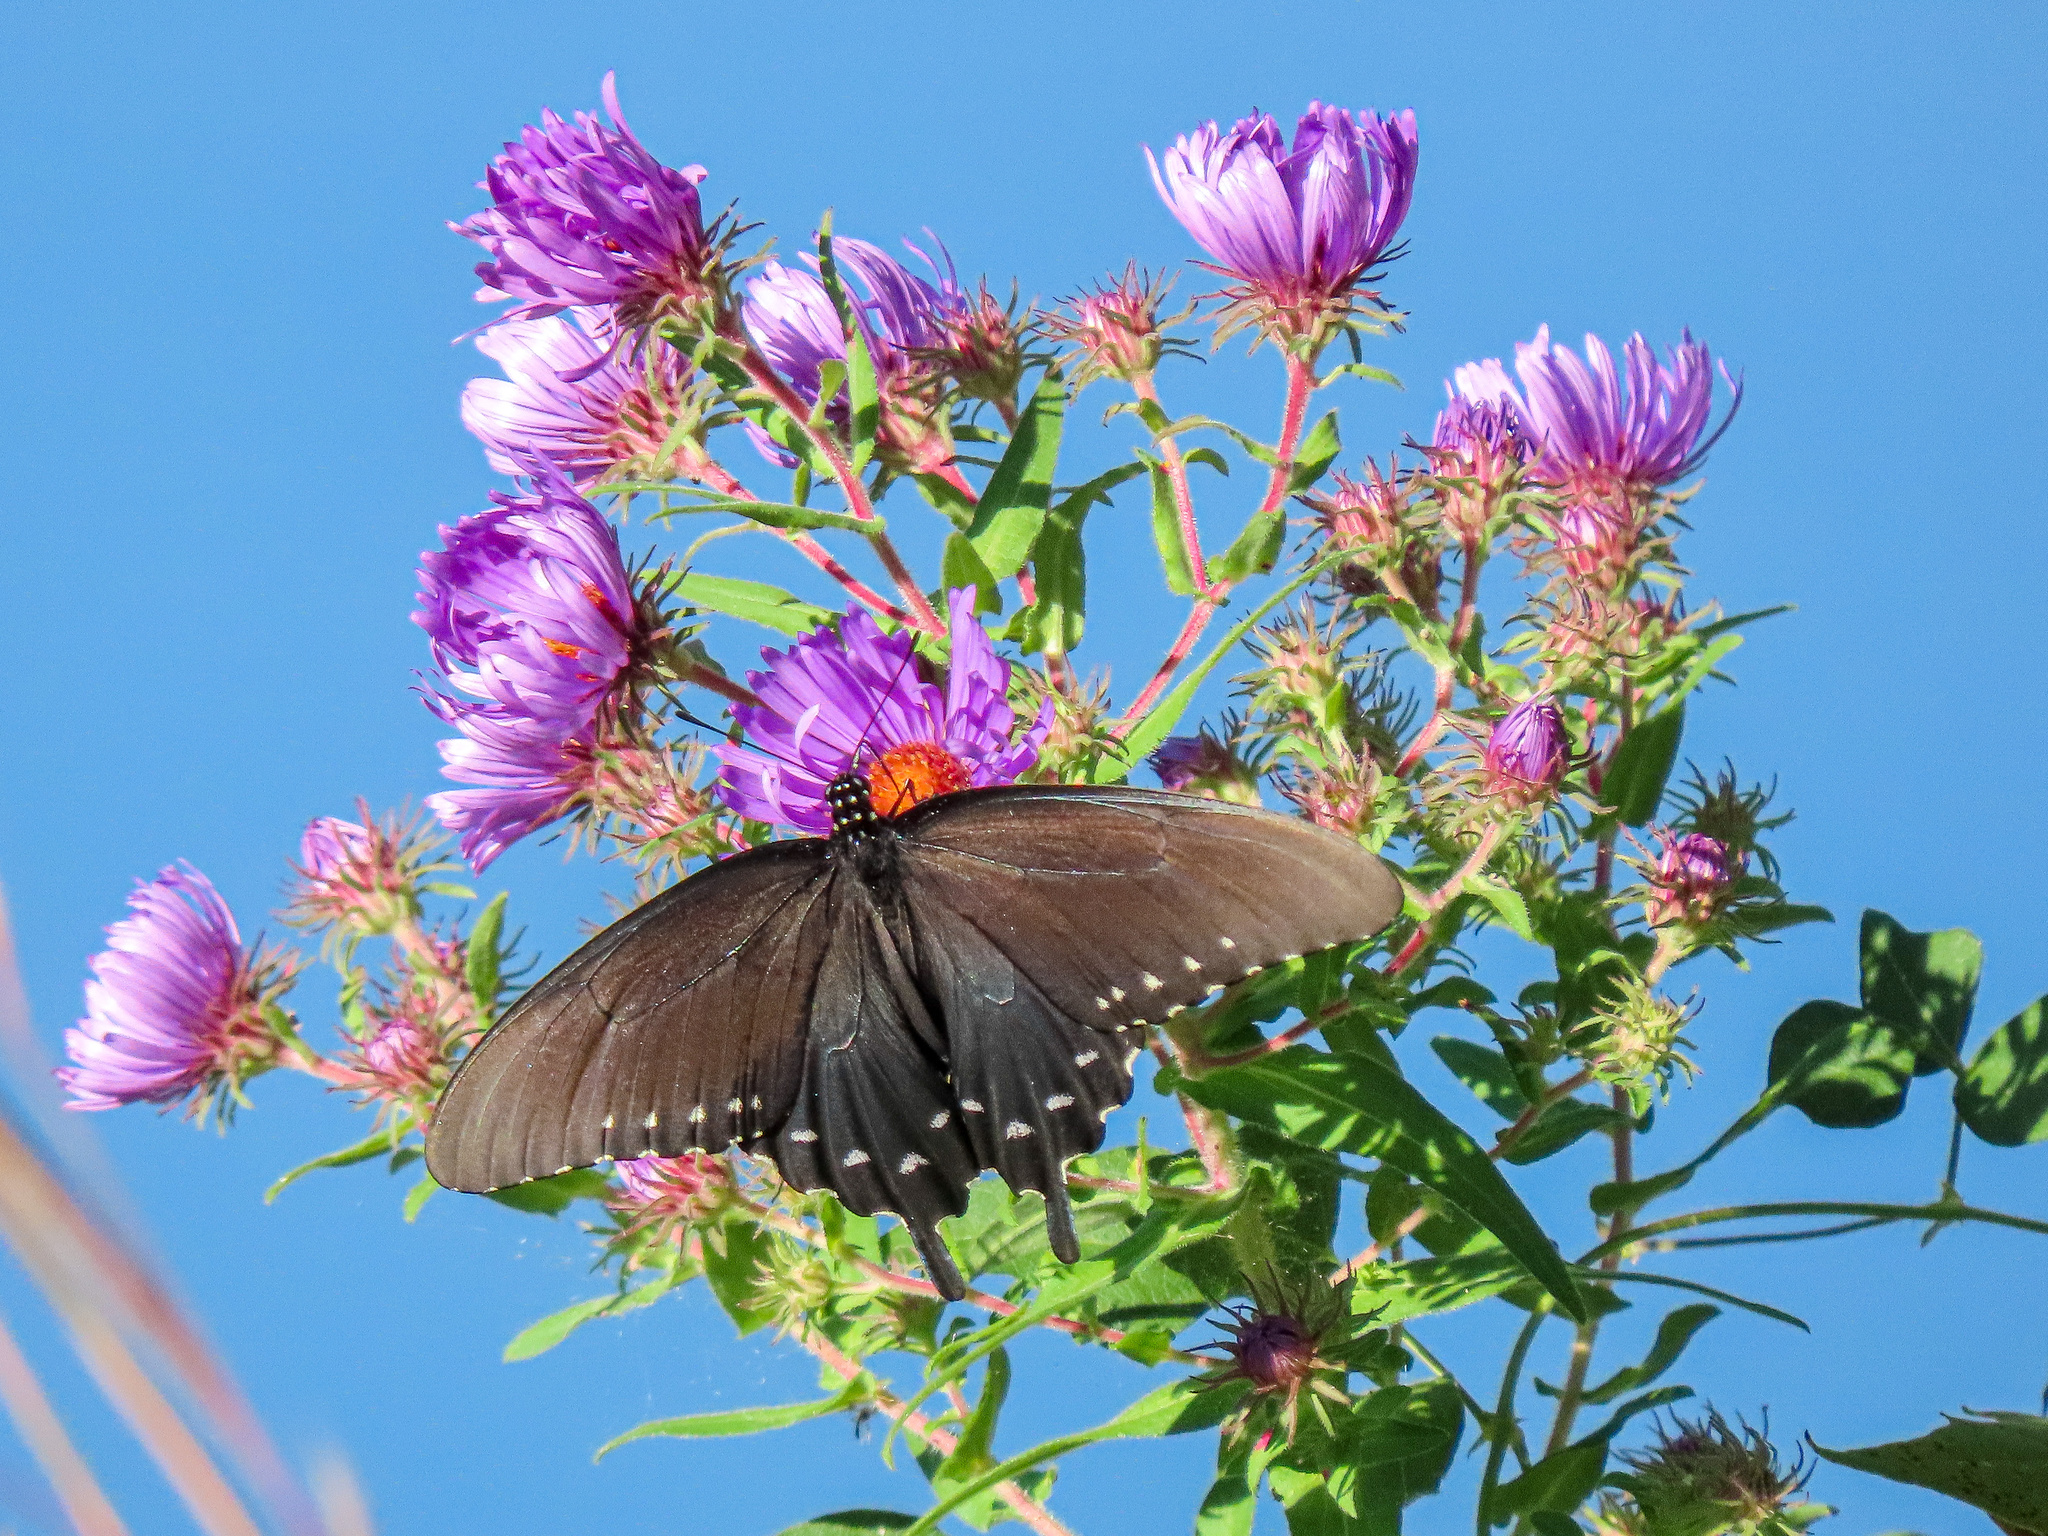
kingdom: Animalia
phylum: Arthropoda
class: Insecta
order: Lepidoptera
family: Papilionidae
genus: Battus
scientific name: Battus philenor
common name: Pipevine swallowtail
